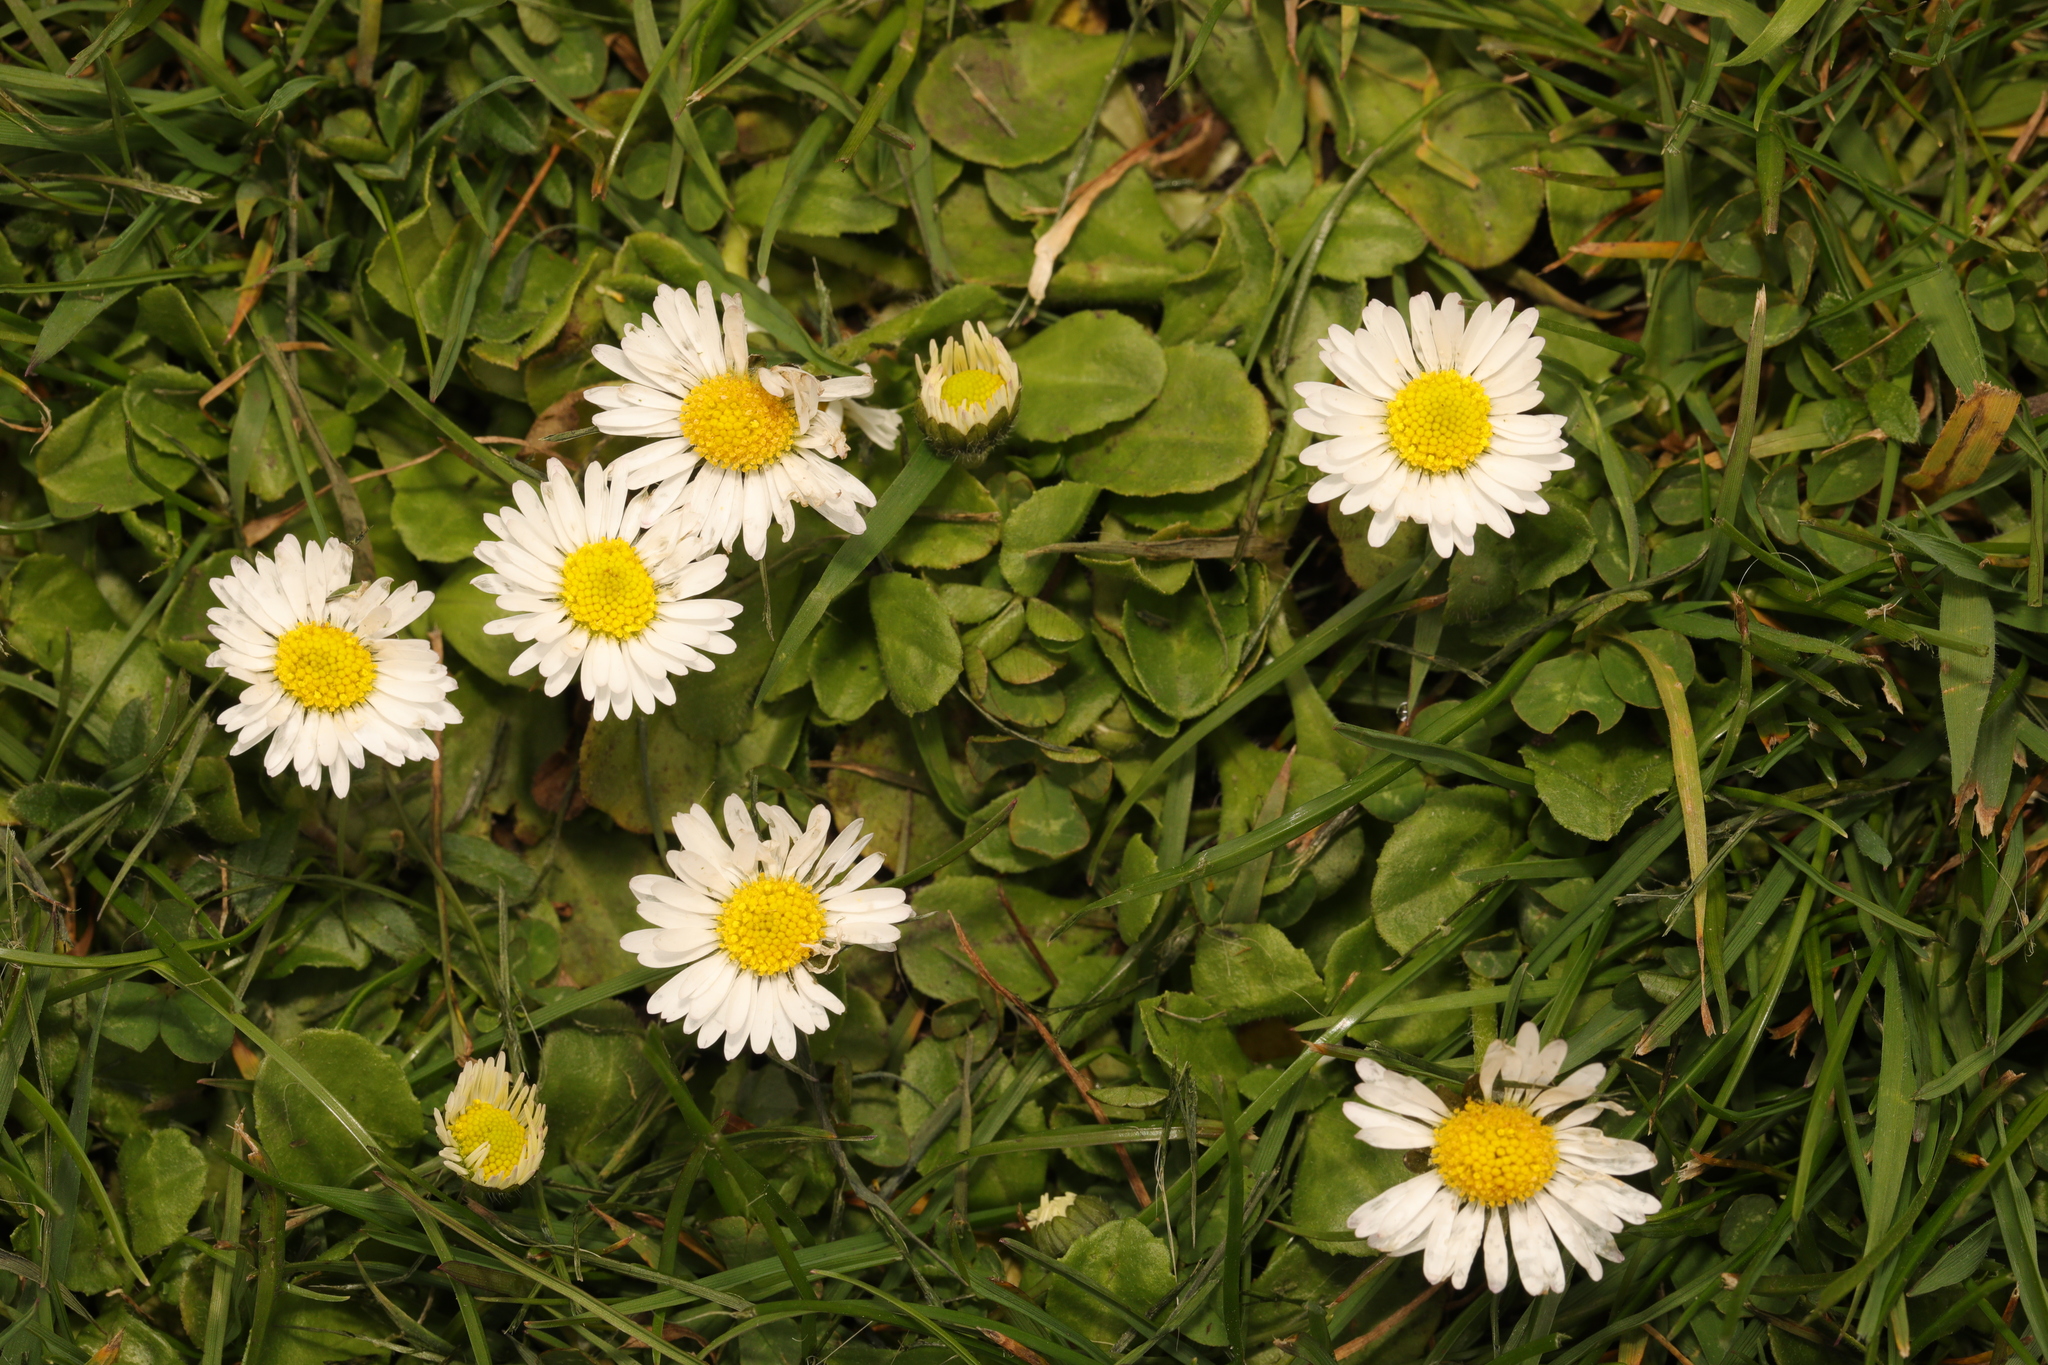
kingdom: Plantae
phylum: Tracheophyta
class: Magnoliopsida
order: Asterales
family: Asteraceae
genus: Bellis
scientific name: Bellis perennis
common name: Lawndaisy
